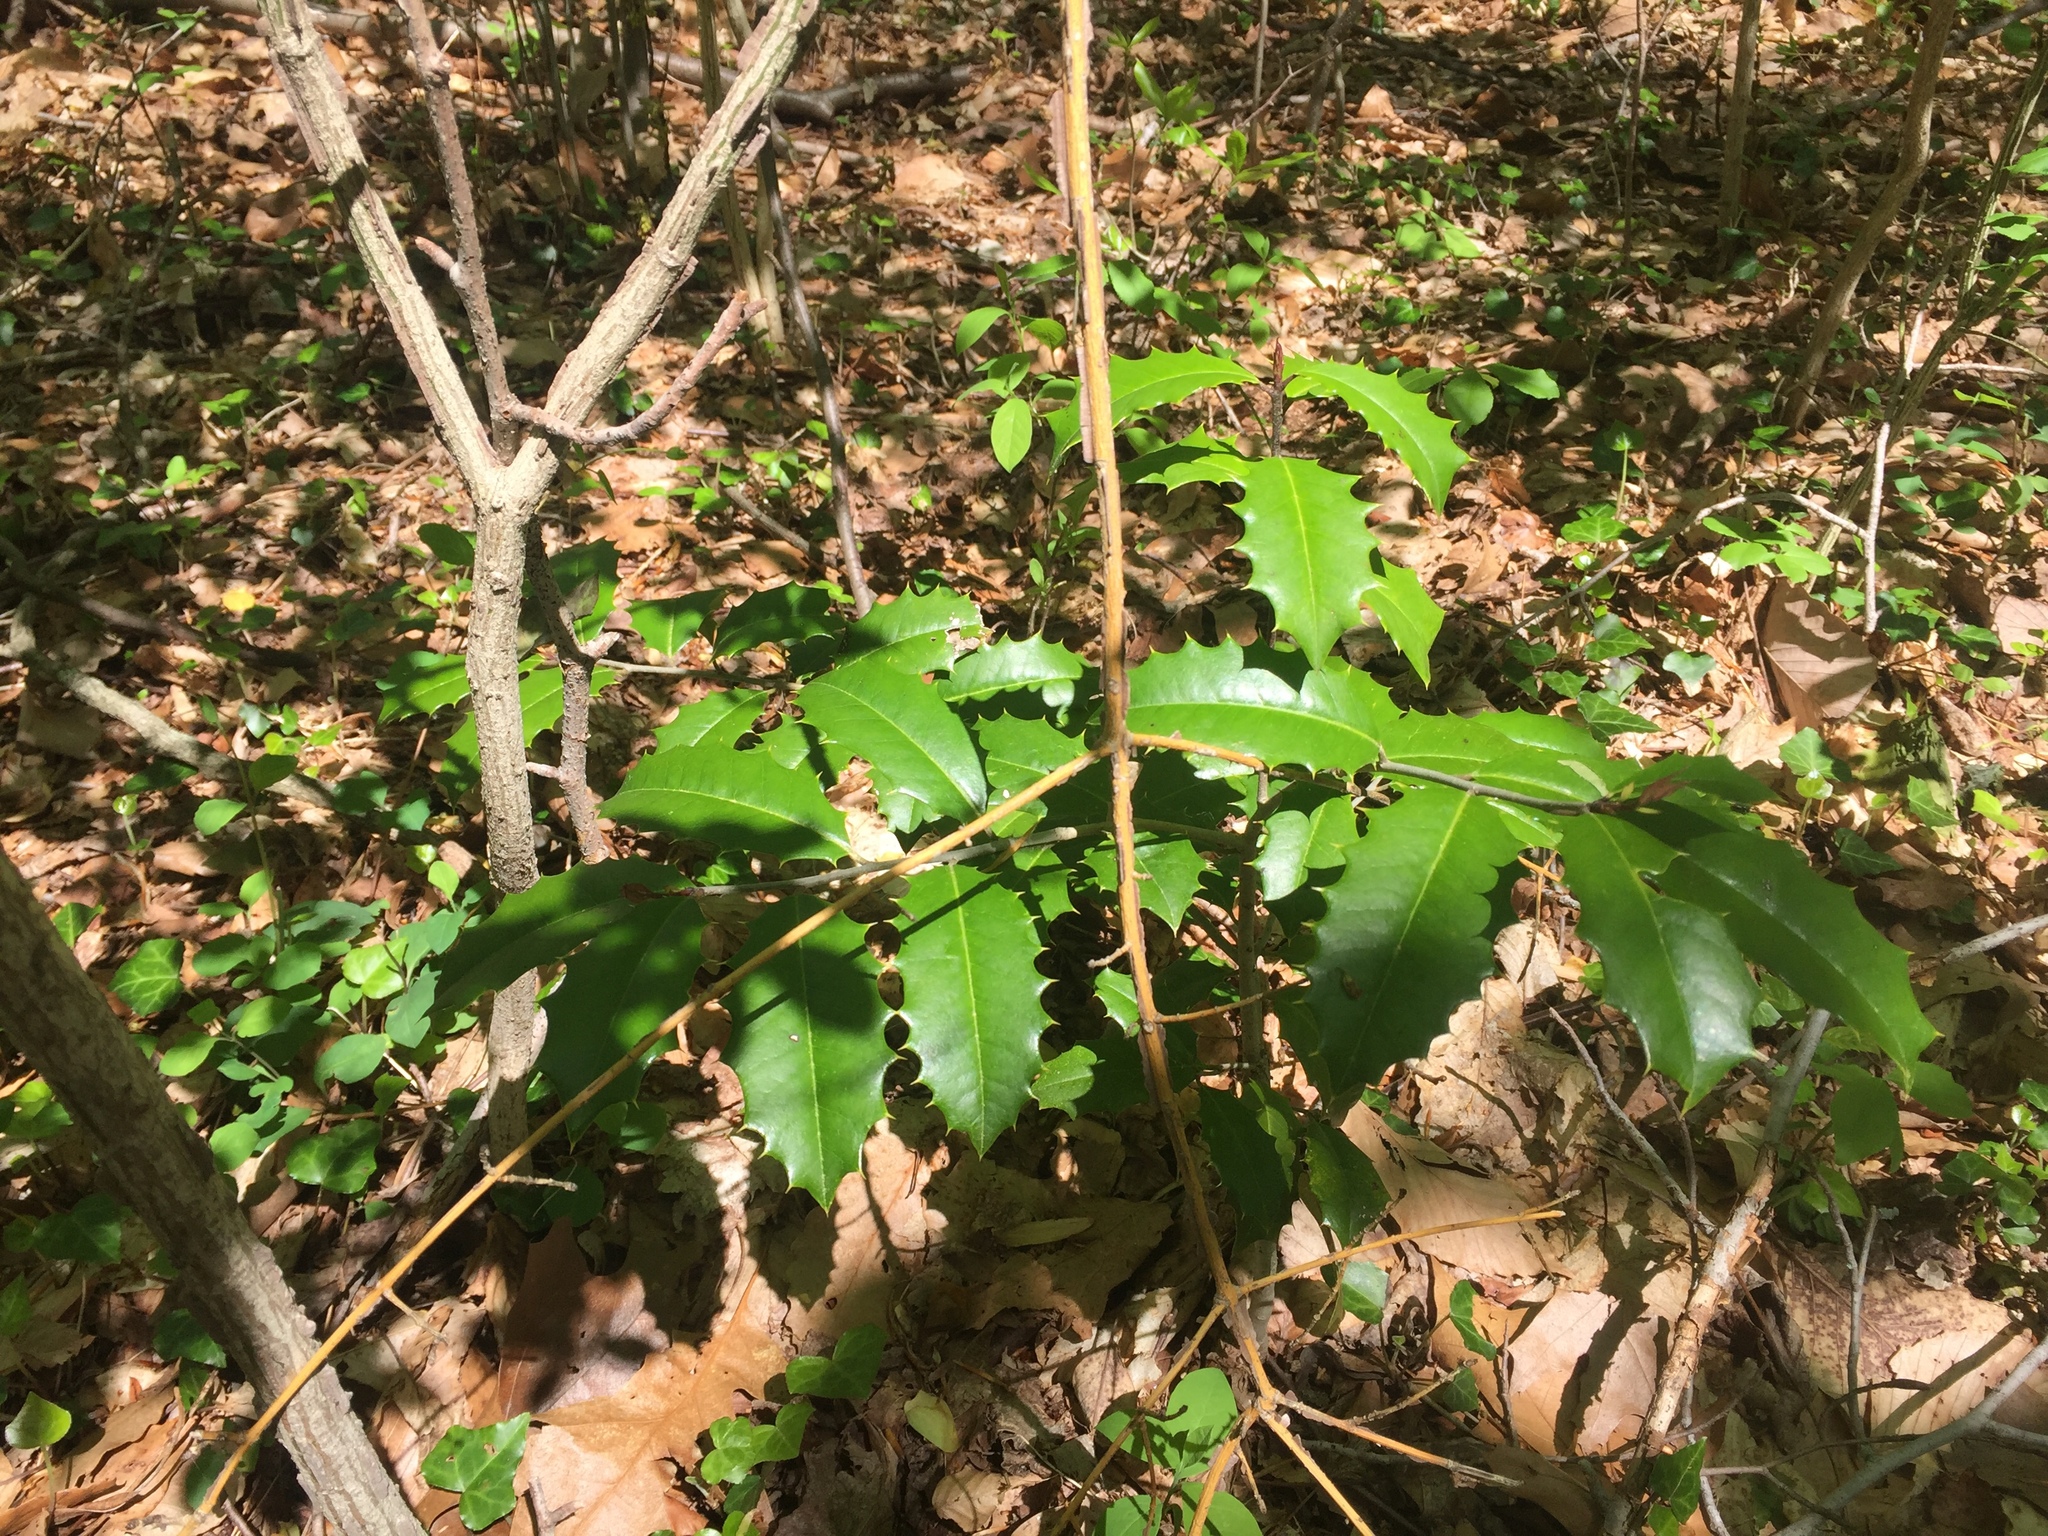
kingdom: Plantae
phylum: Tracheophyta
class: Magnoliopsida
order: Aquifoliales
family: Aquifoliaceae
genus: Ilex
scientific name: Ilex opaca
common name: American holly
